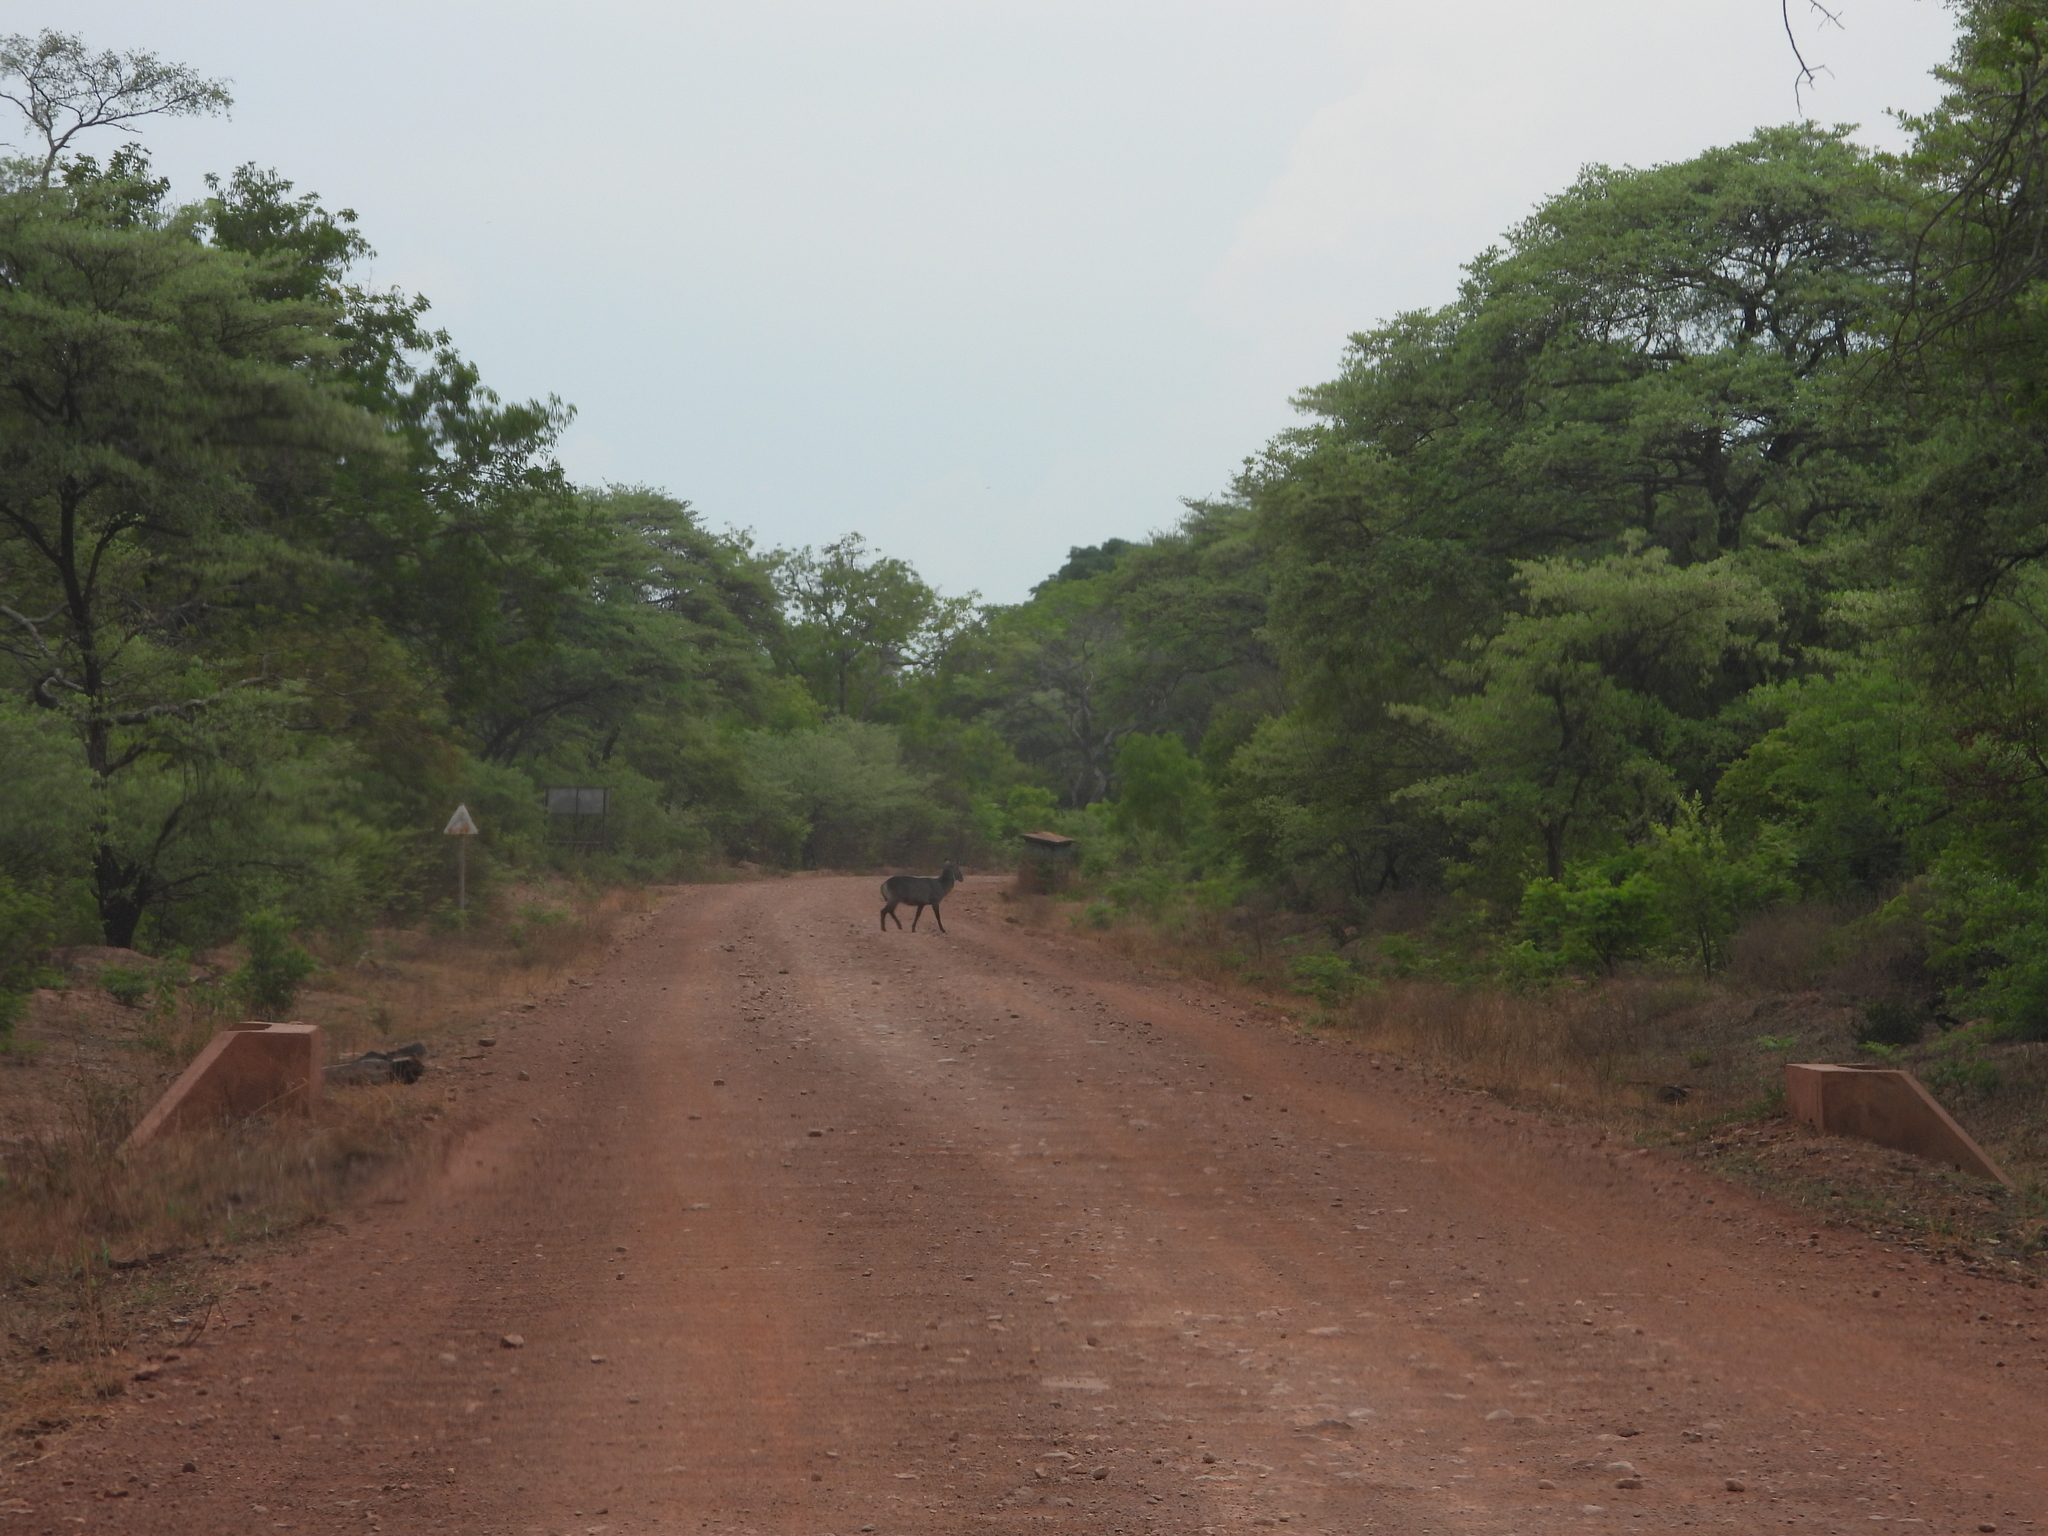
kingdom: Animalia
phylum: Chordata
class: Mammalia
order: Artiodactyla
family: Bovidae
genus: Kobus
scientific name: Kobus ellipsiprymnus
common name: Waterbuck
